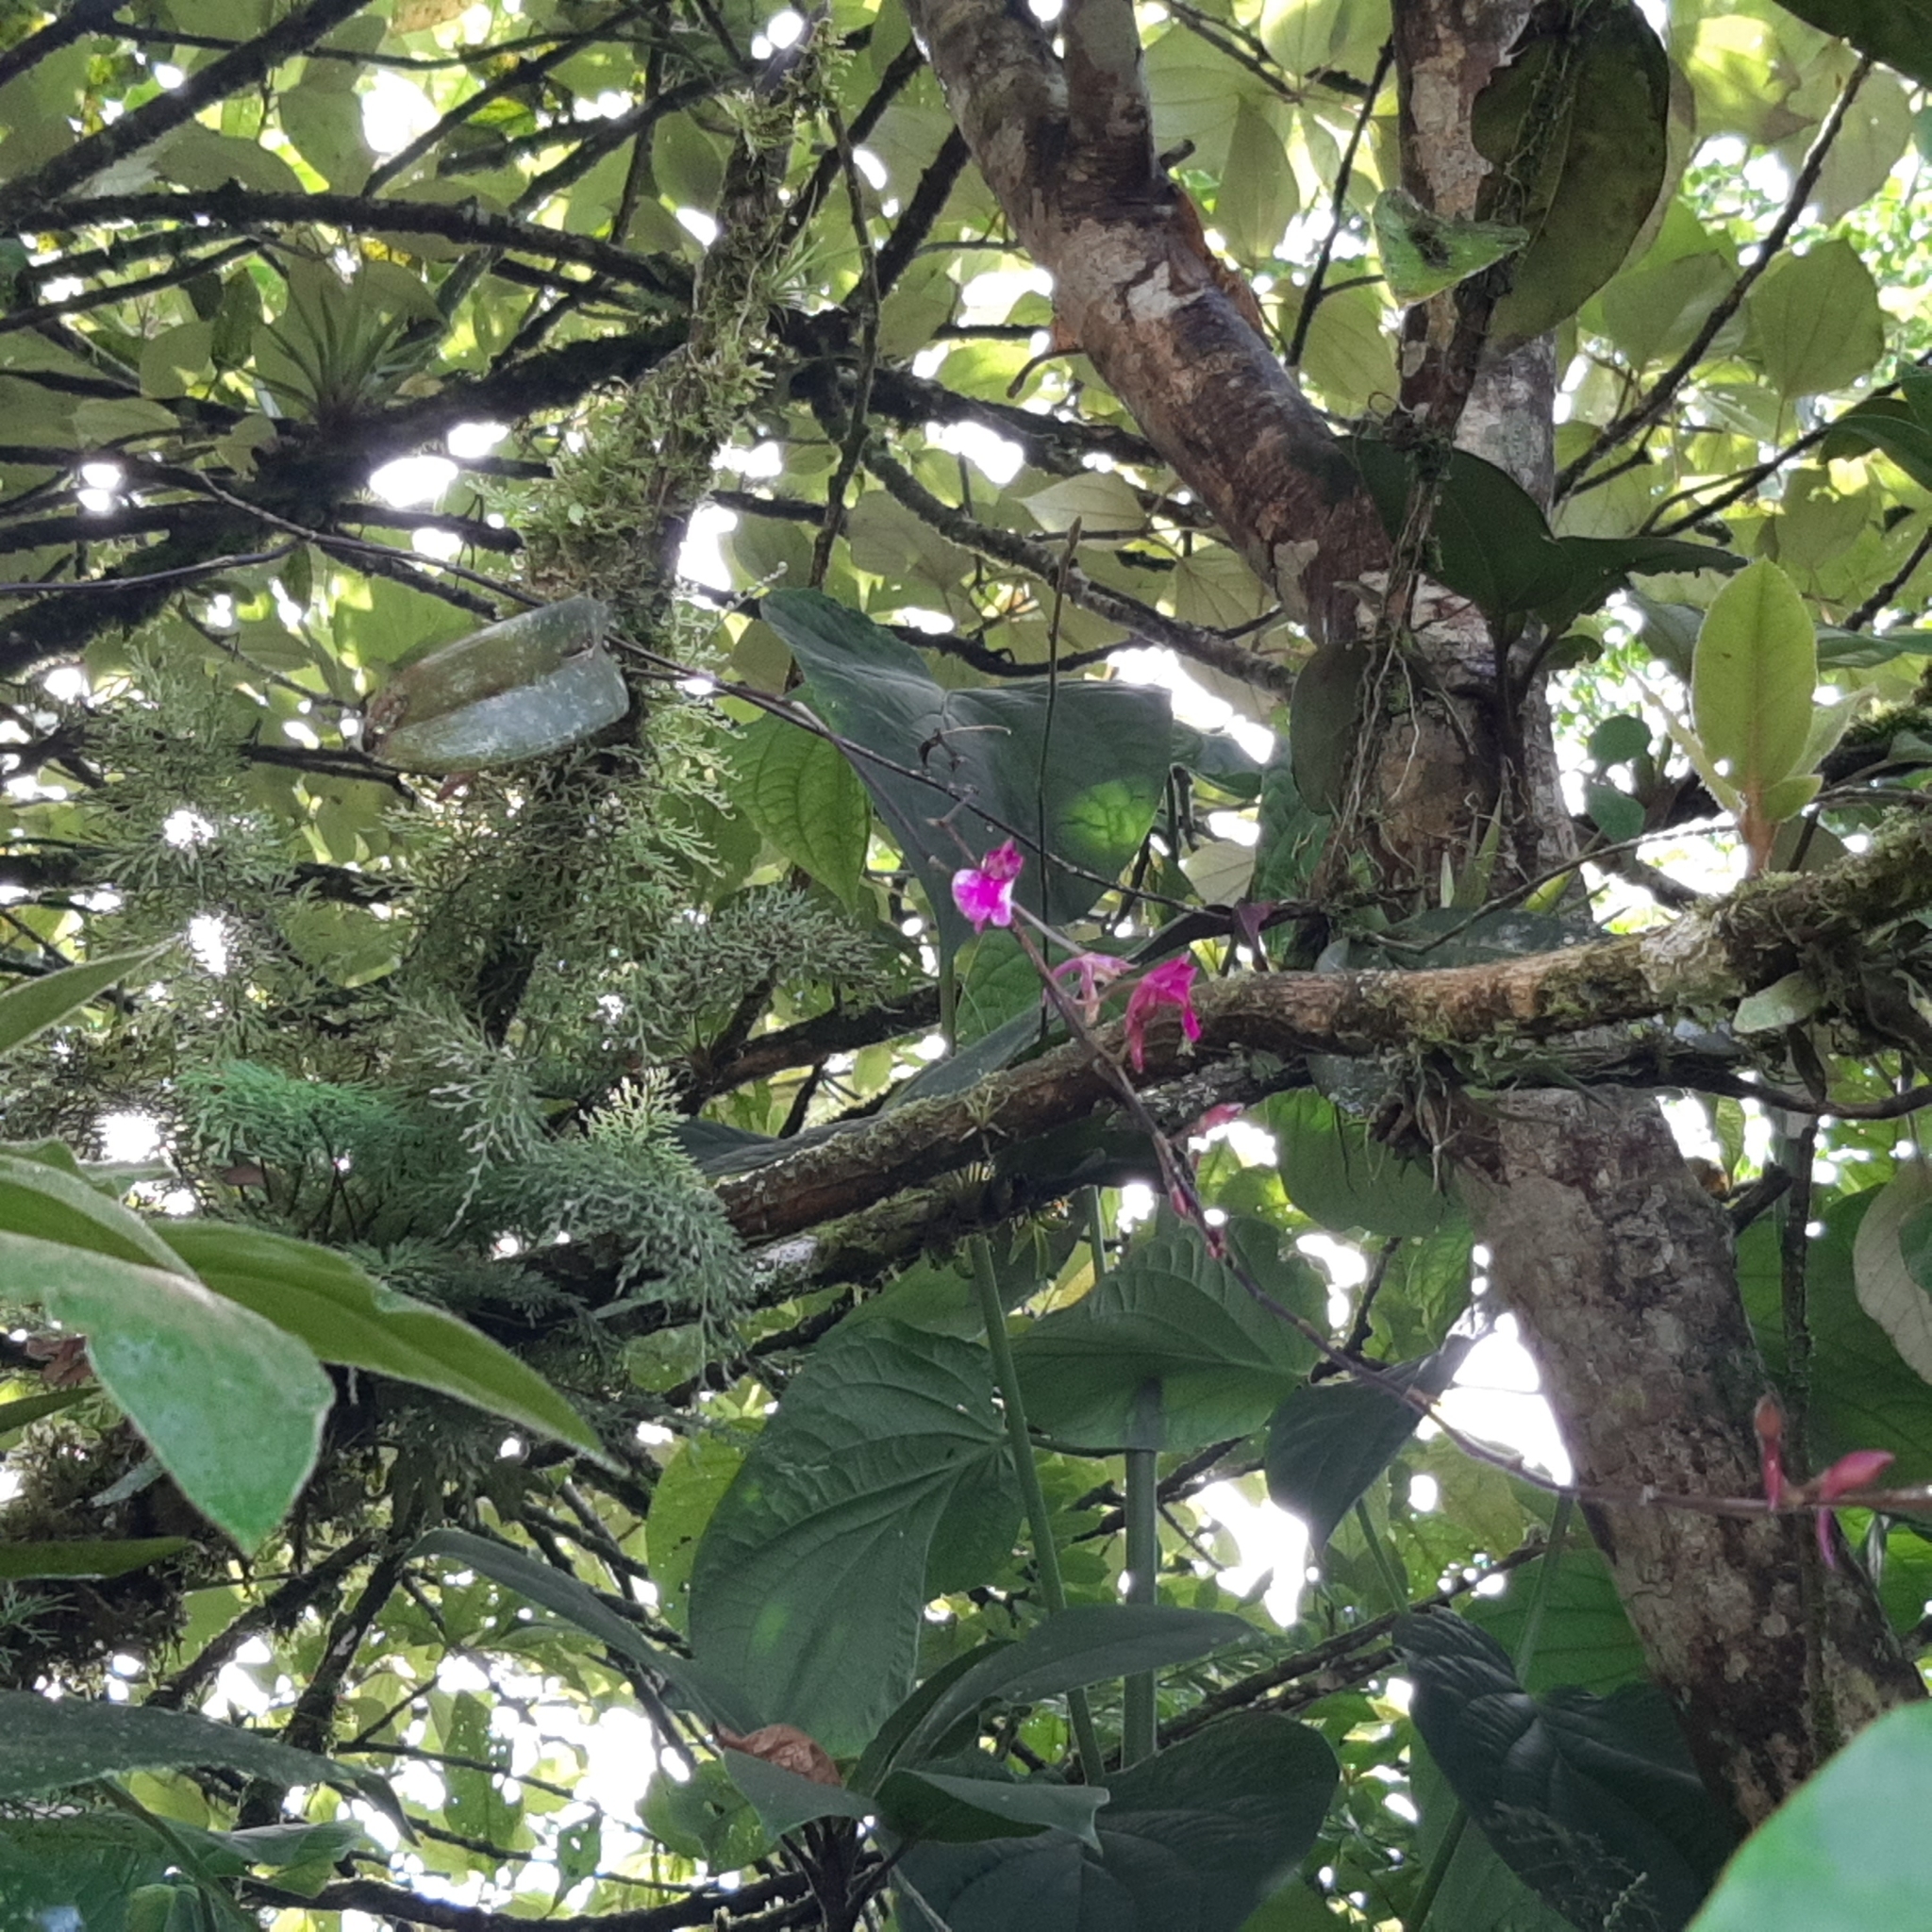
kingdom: Plantae
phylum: Tracheophyta
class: Liliopsida
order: Asparagales
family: Orchidaceae
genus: Comparettia
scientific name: Comparettia falcata
